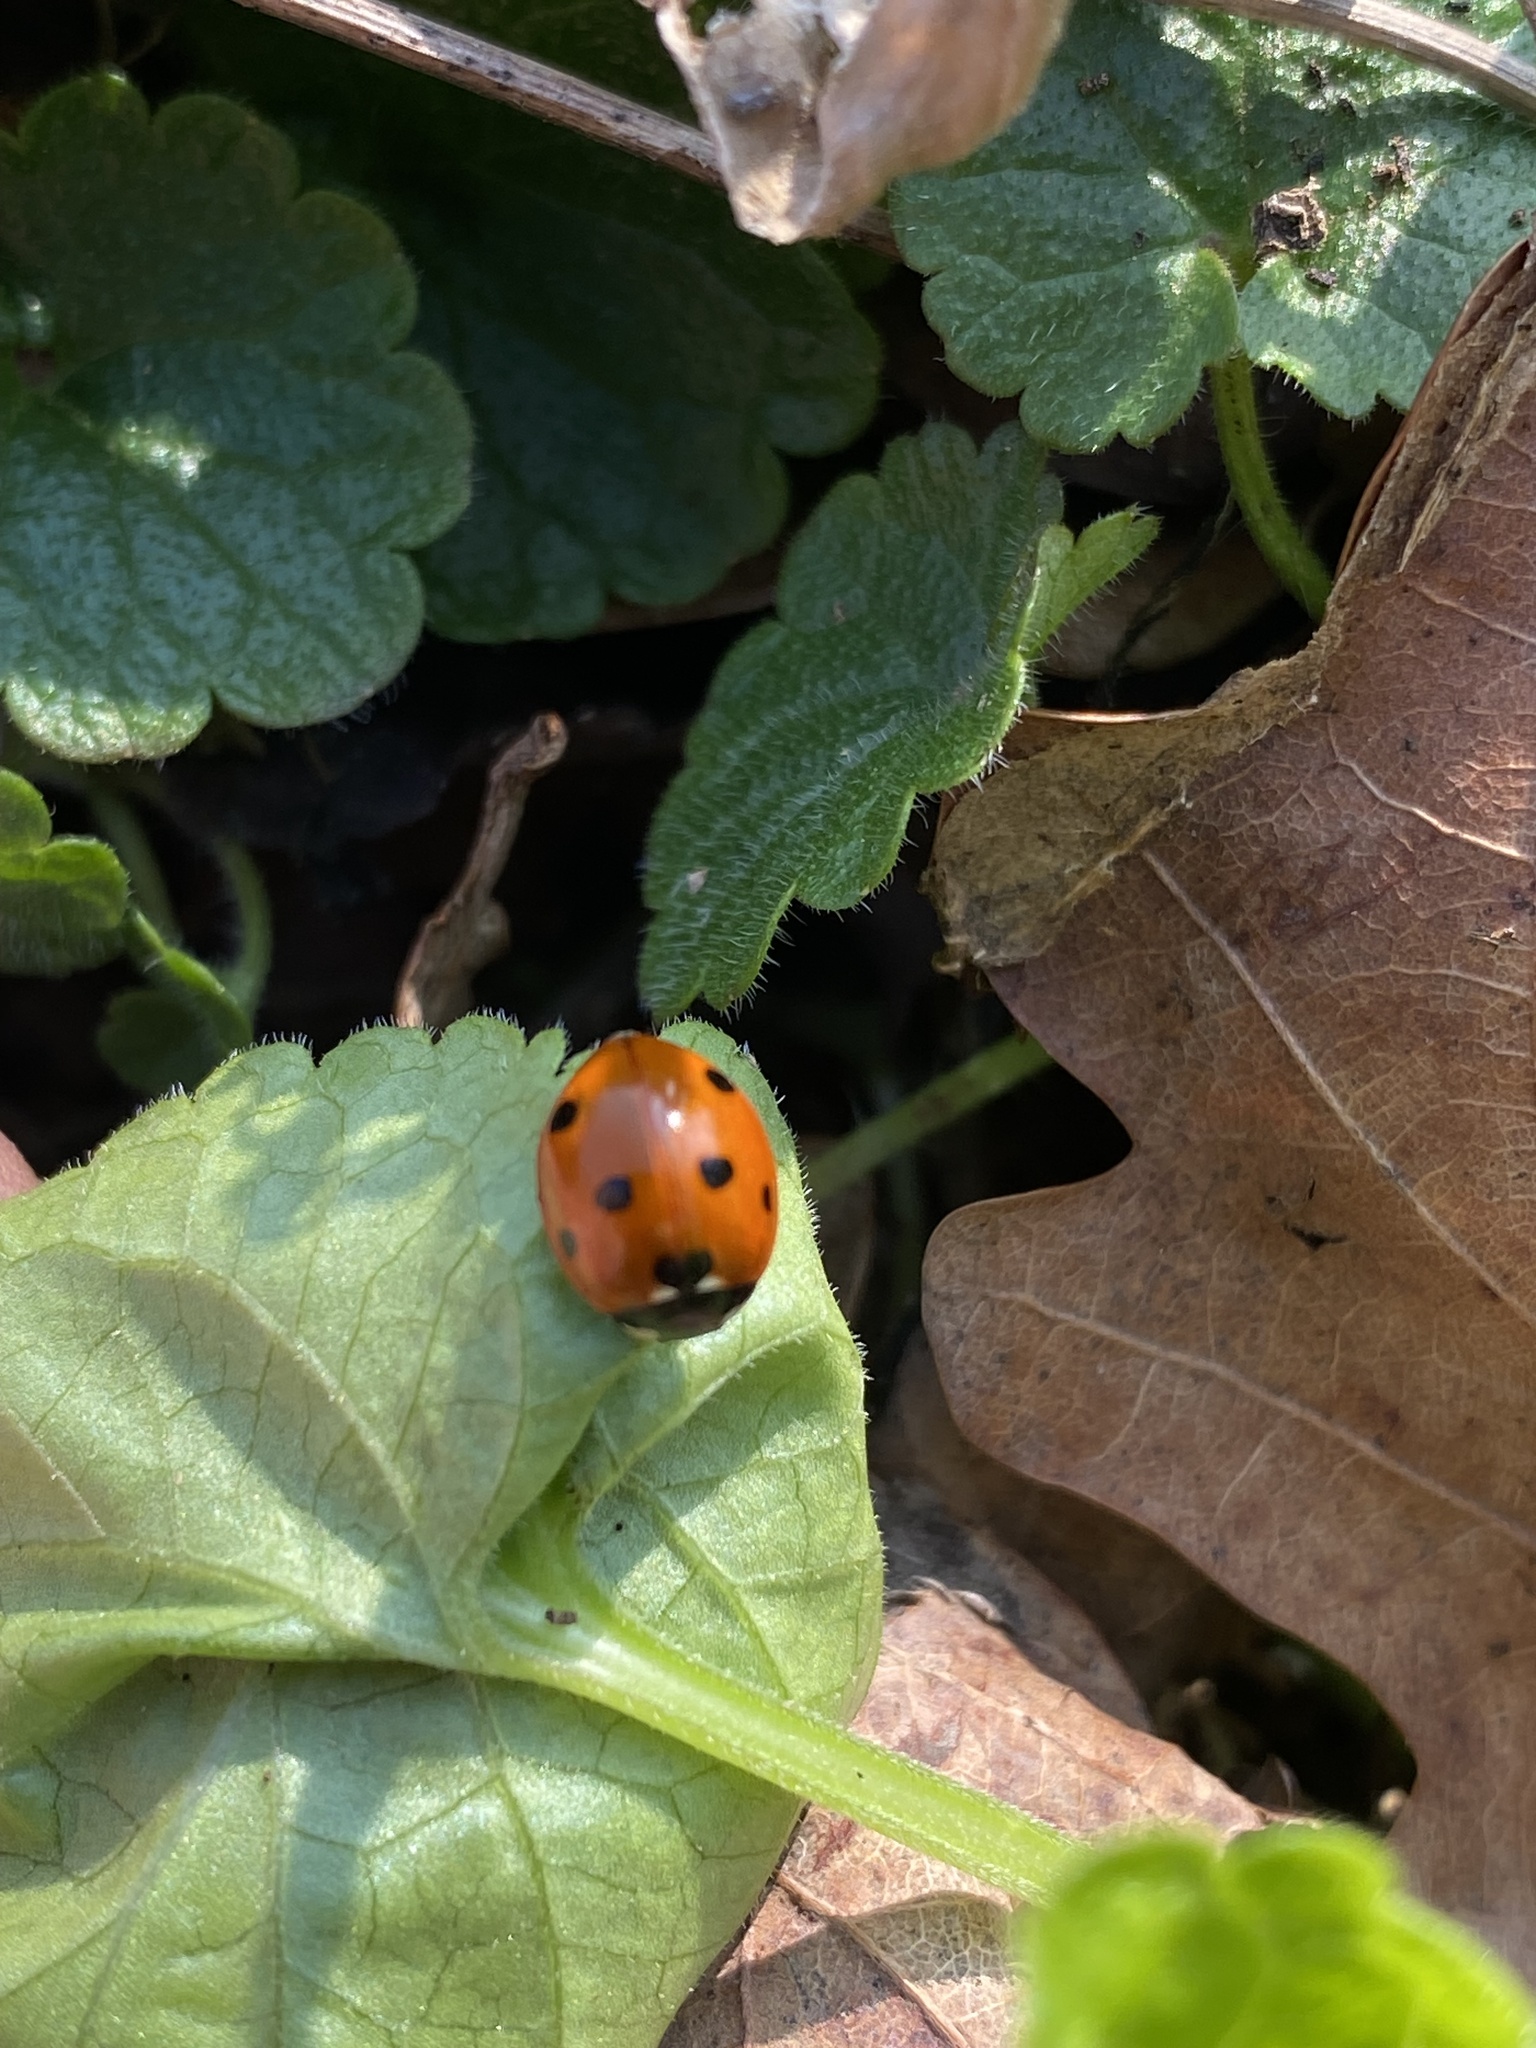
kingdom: Animalia
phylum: Arthropoda
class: Insecta
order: Coleoptera
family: Coccinellidae
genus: Coccinella
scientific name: Coccinella septempunctata
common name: Sevenspotted lady beetle
